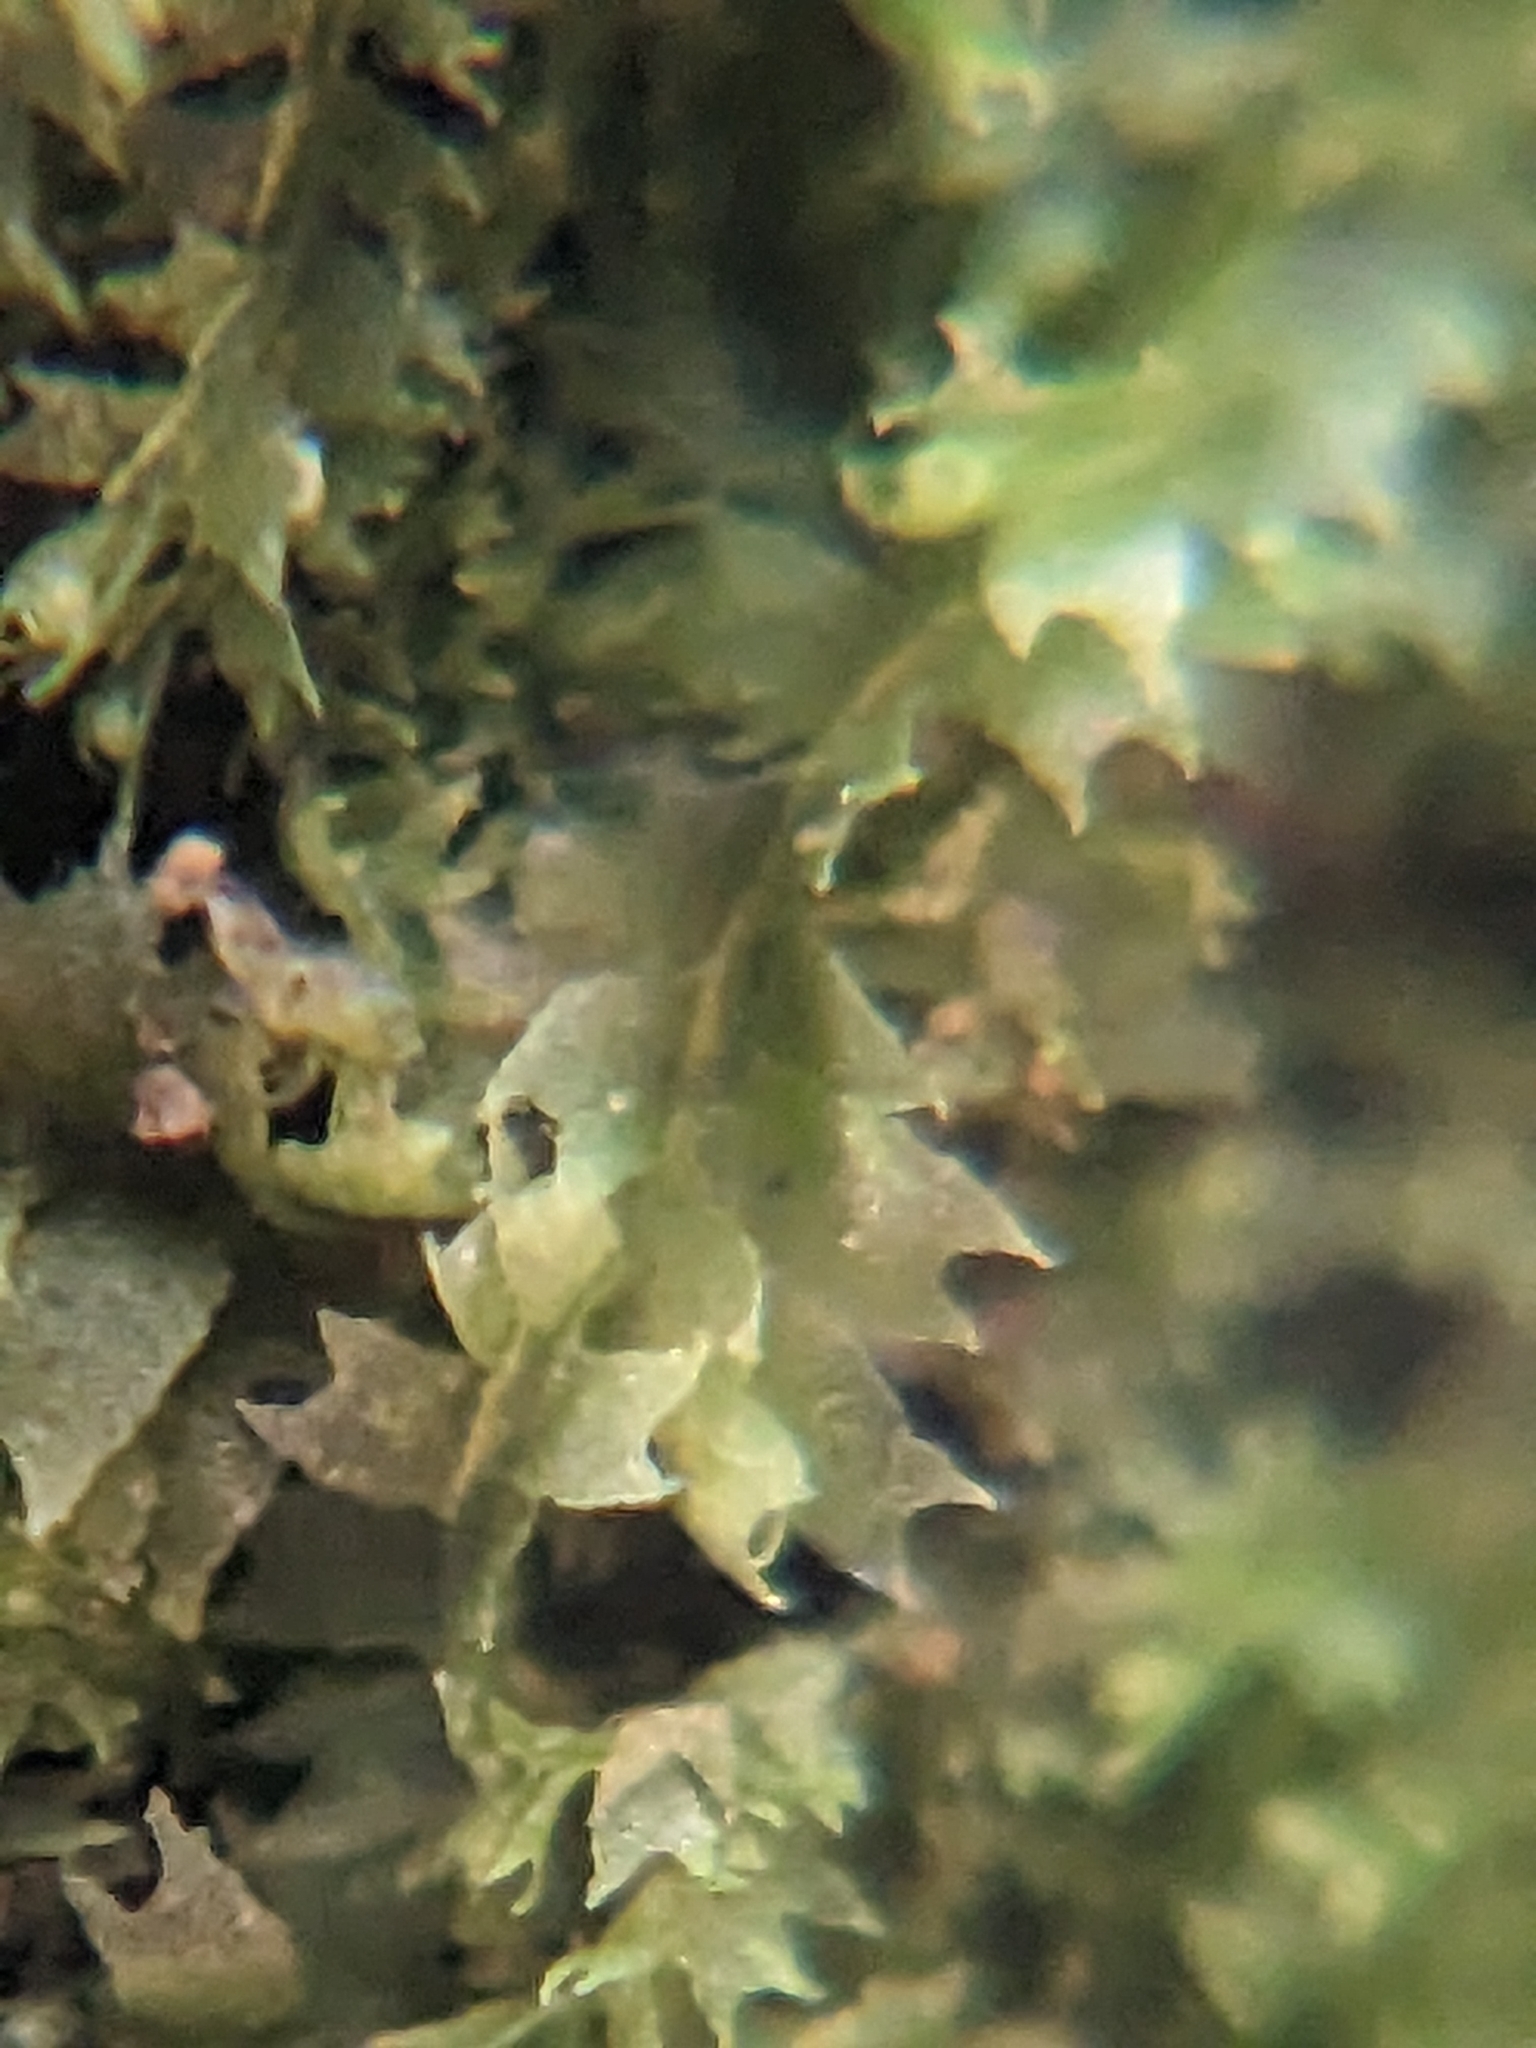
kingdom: Plantae
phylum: Marchantiophyta
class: Jungermanniopsida
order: Jungermanniales
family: Lophocoleaceae
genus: Lophocolea
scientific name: Lophocolea bidentata
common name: Bifid crestwort
